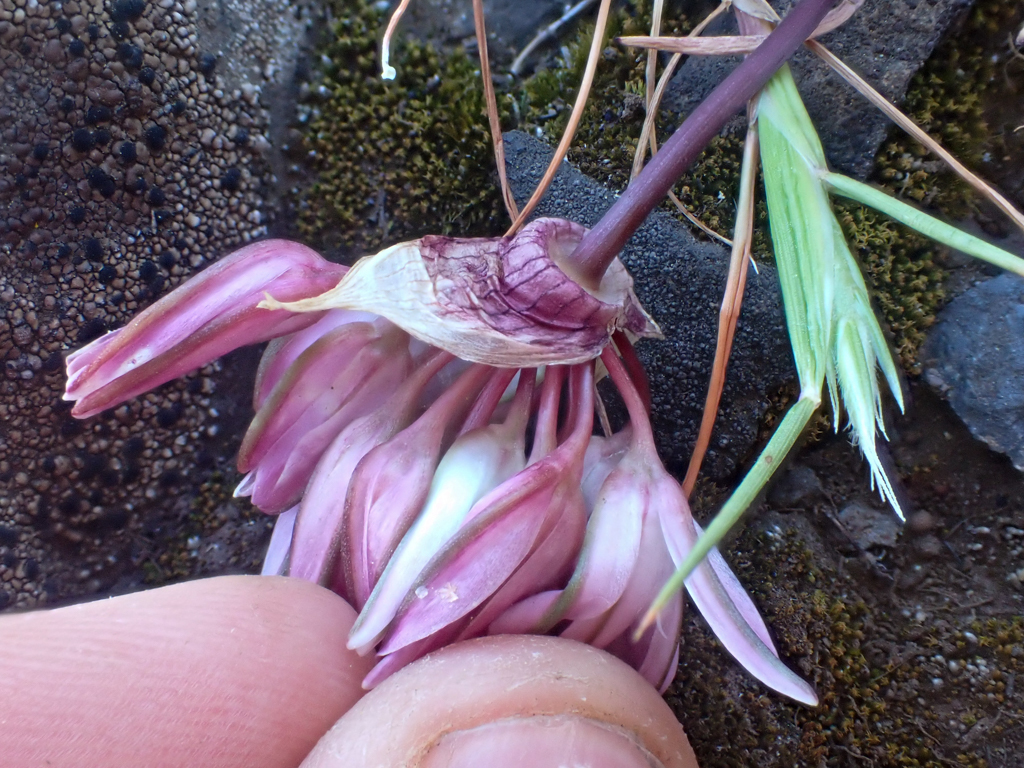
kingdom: Plantae
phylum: Tracheophyta
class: Liliopsida
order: Asparagales
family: Amaryllidaceae
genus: Allium
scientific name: Allium cratericola
